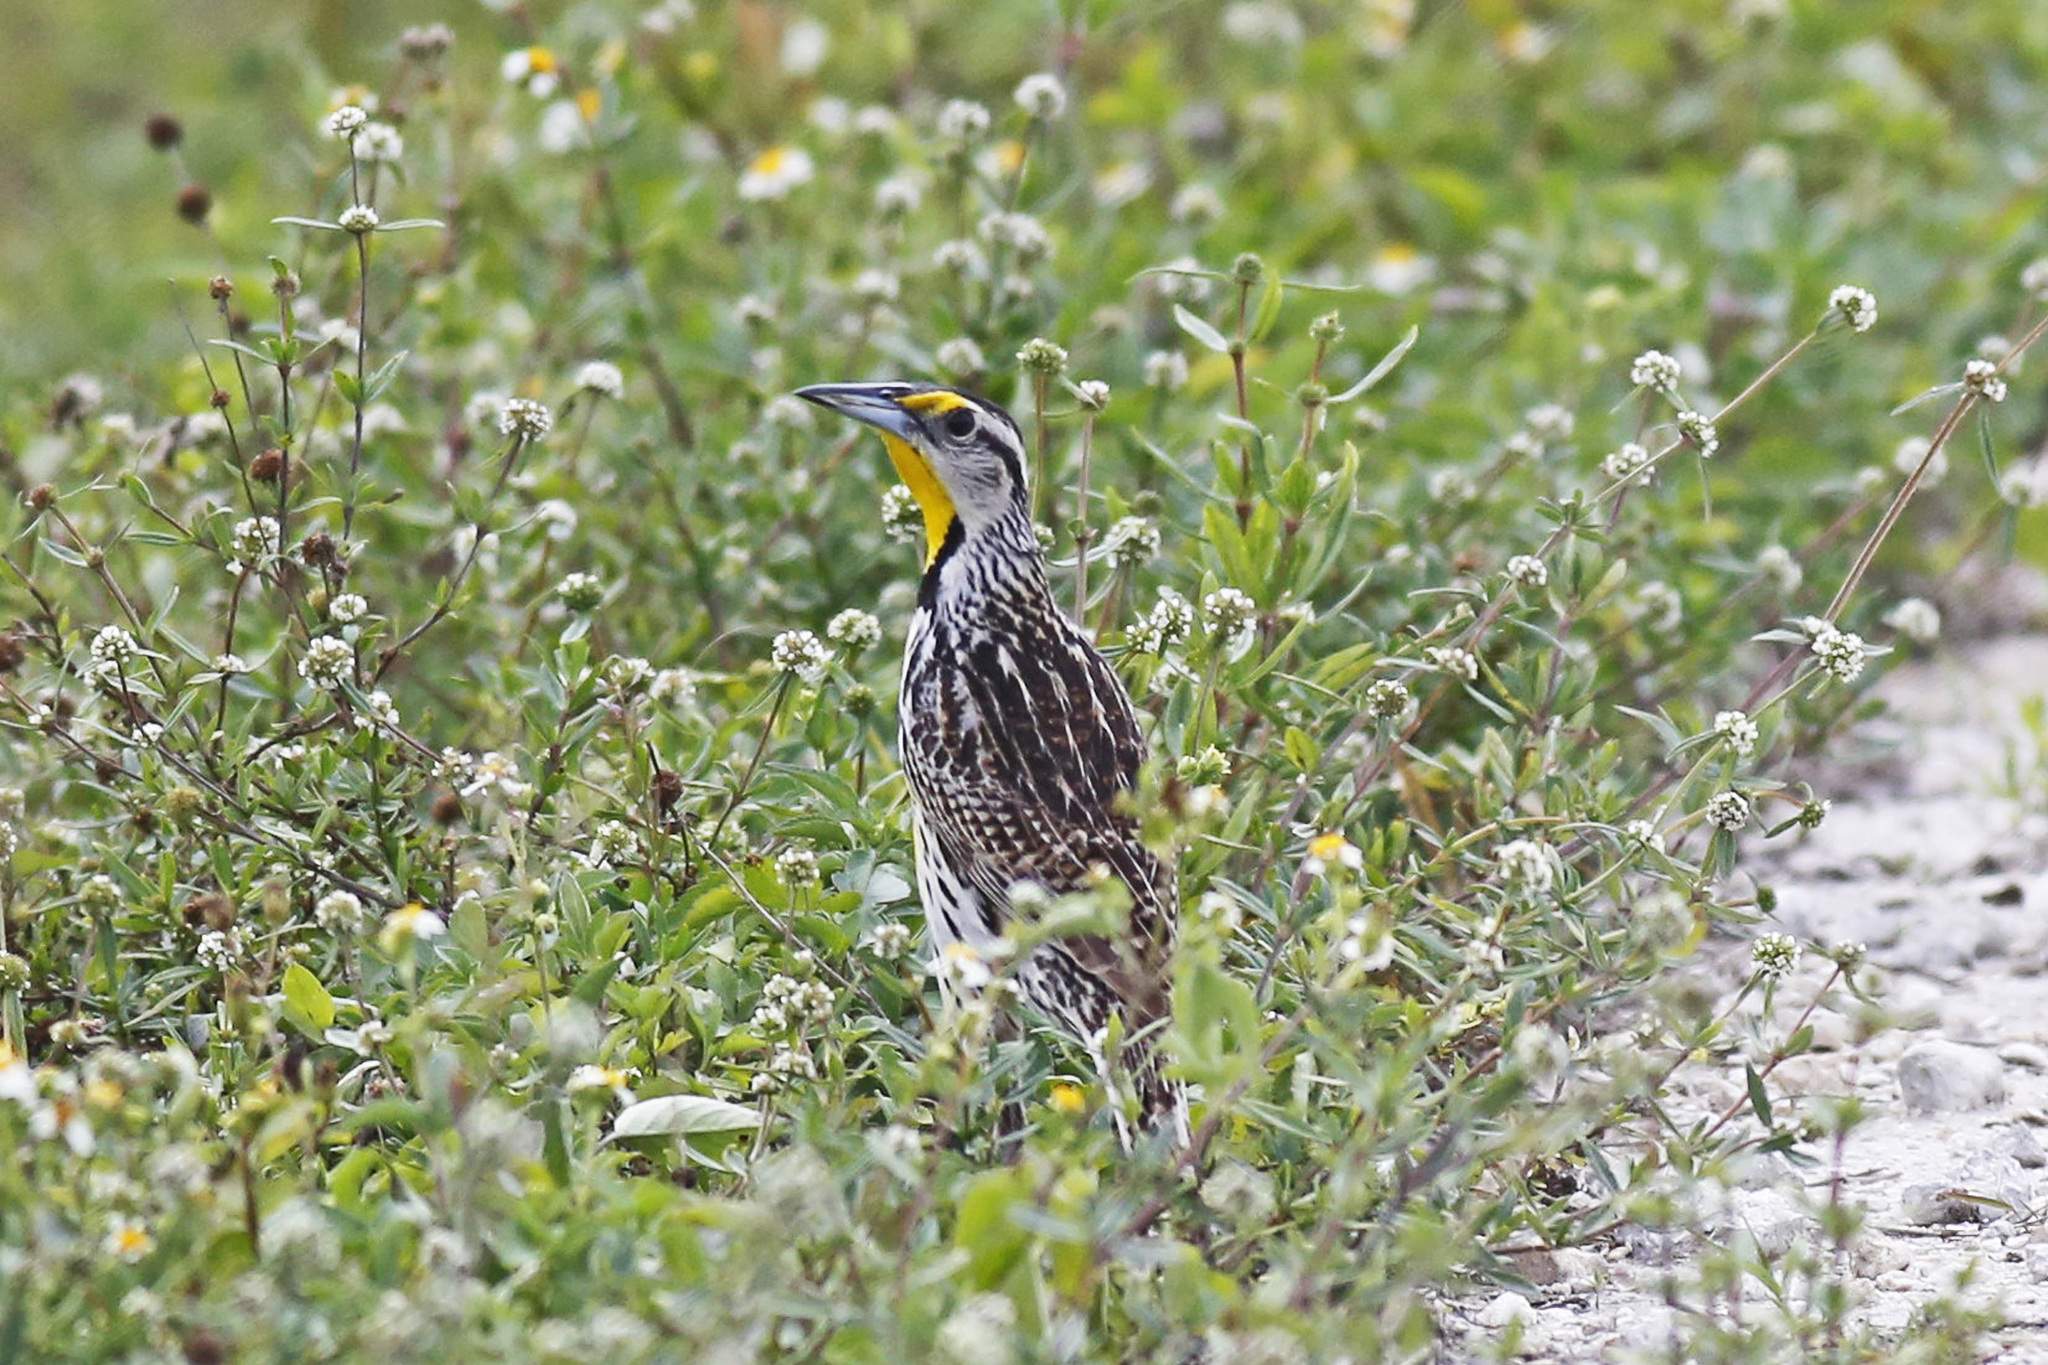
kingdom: Animalia
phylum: Chordata
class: Aves
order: Passeriformes
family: Icteridae
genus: Sturnella
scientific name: Sturnella magna
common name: Eastern meadowlark
